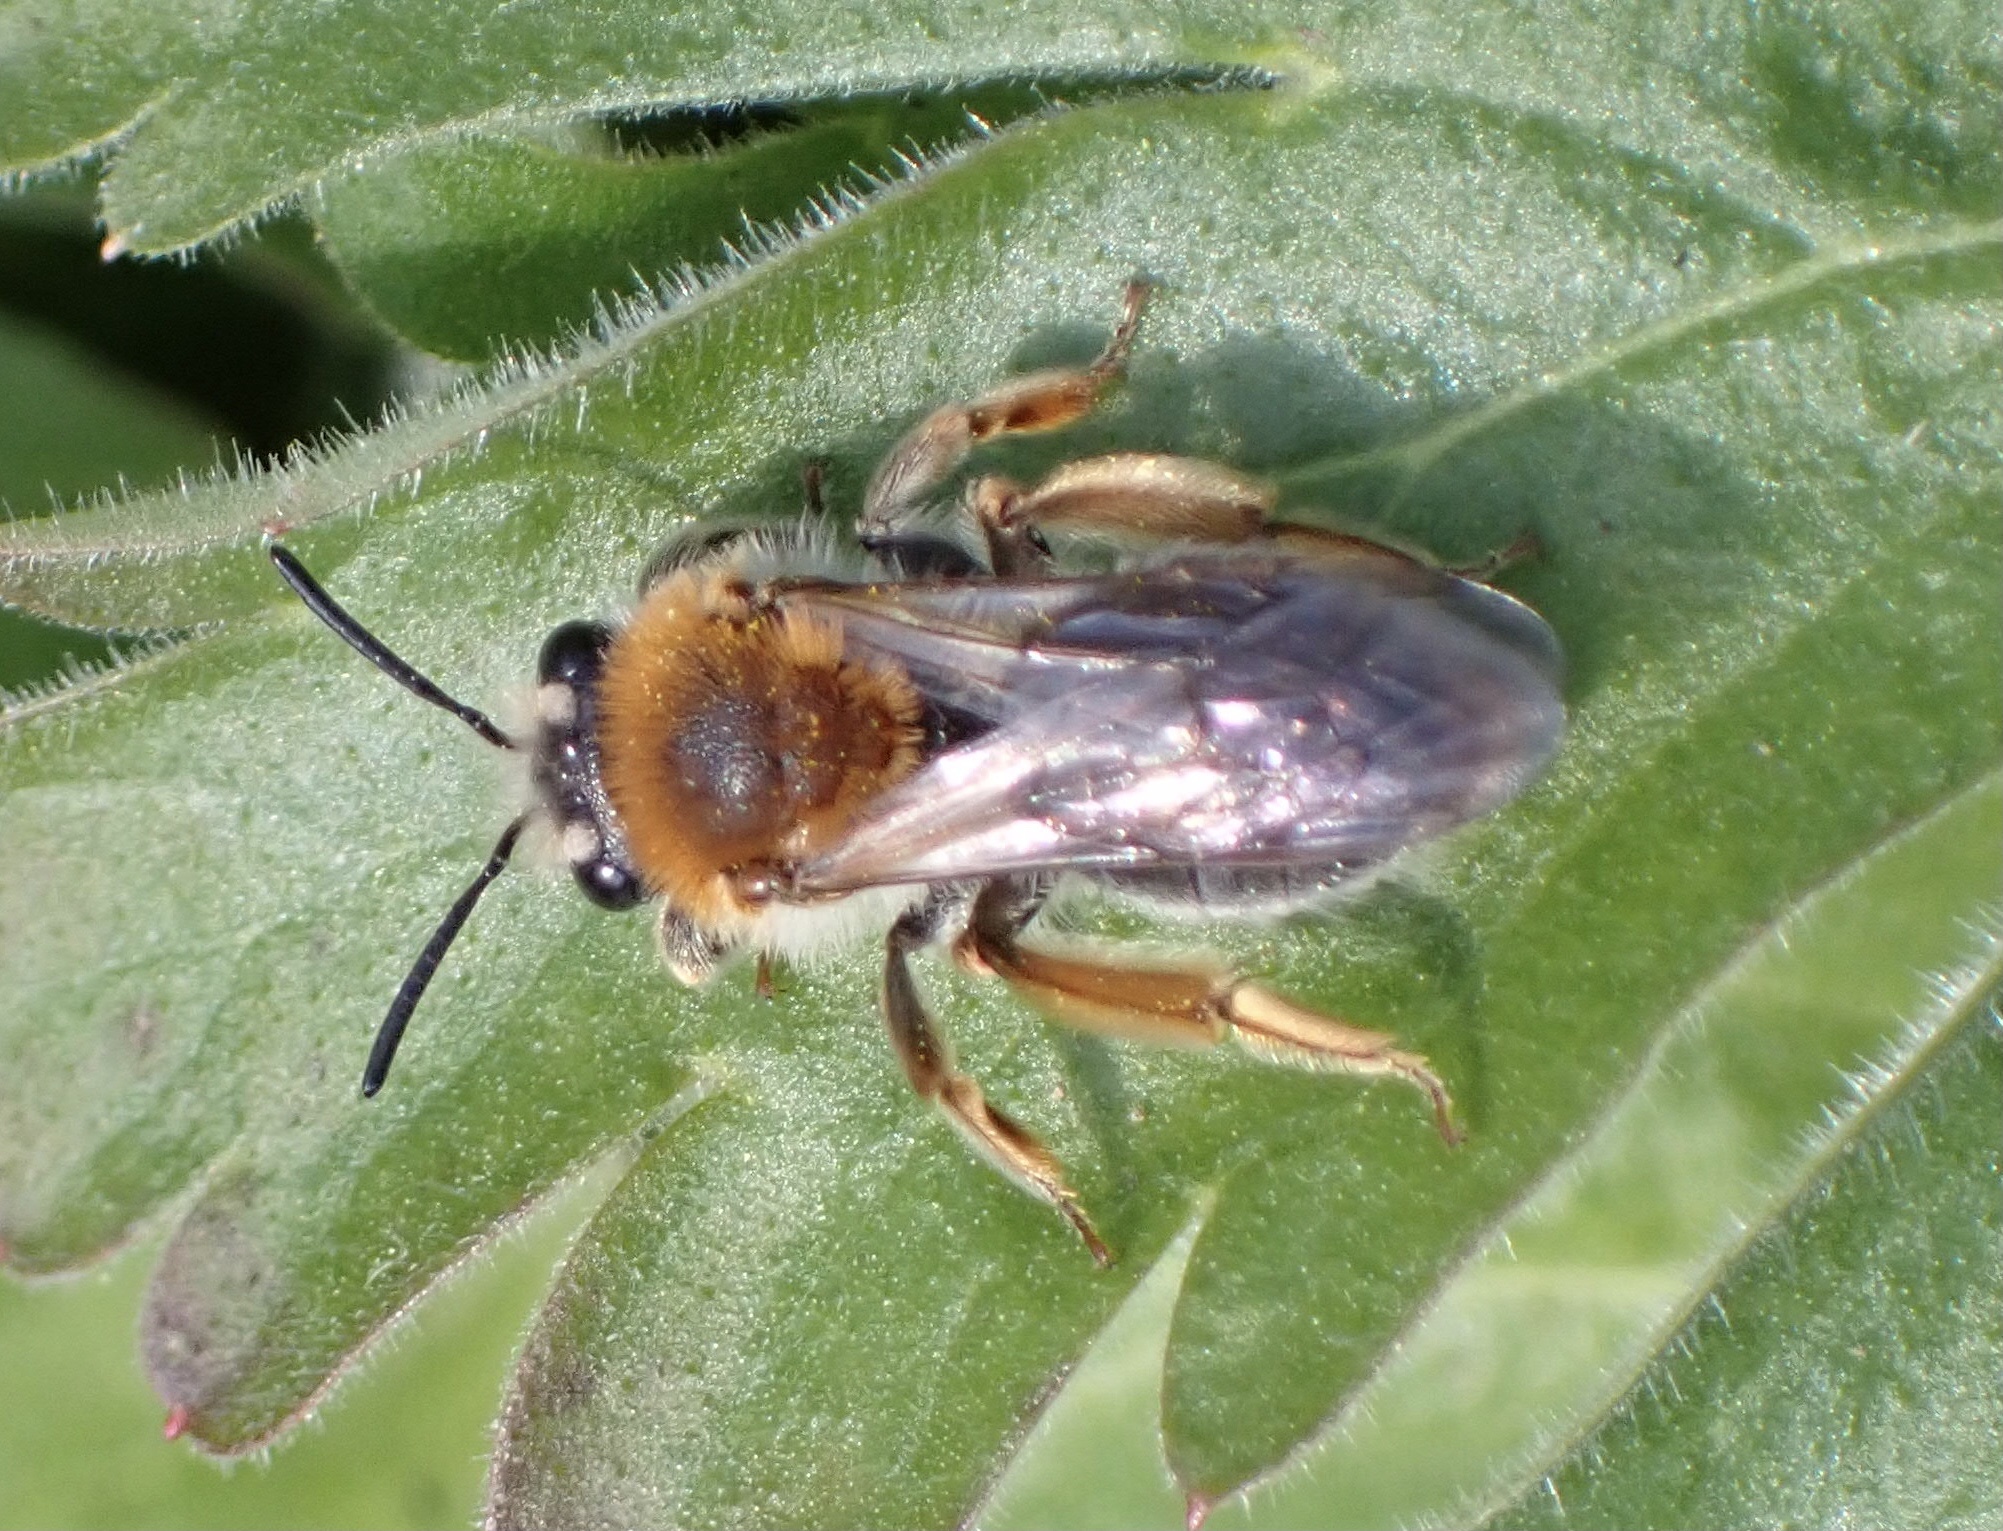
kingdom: Animalia
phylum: Arthropoda
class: Insecta
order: Hymenoptera
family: Andrenidae
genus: Andrena
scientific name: Andrena haemorrhoa
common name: Early mining bee
